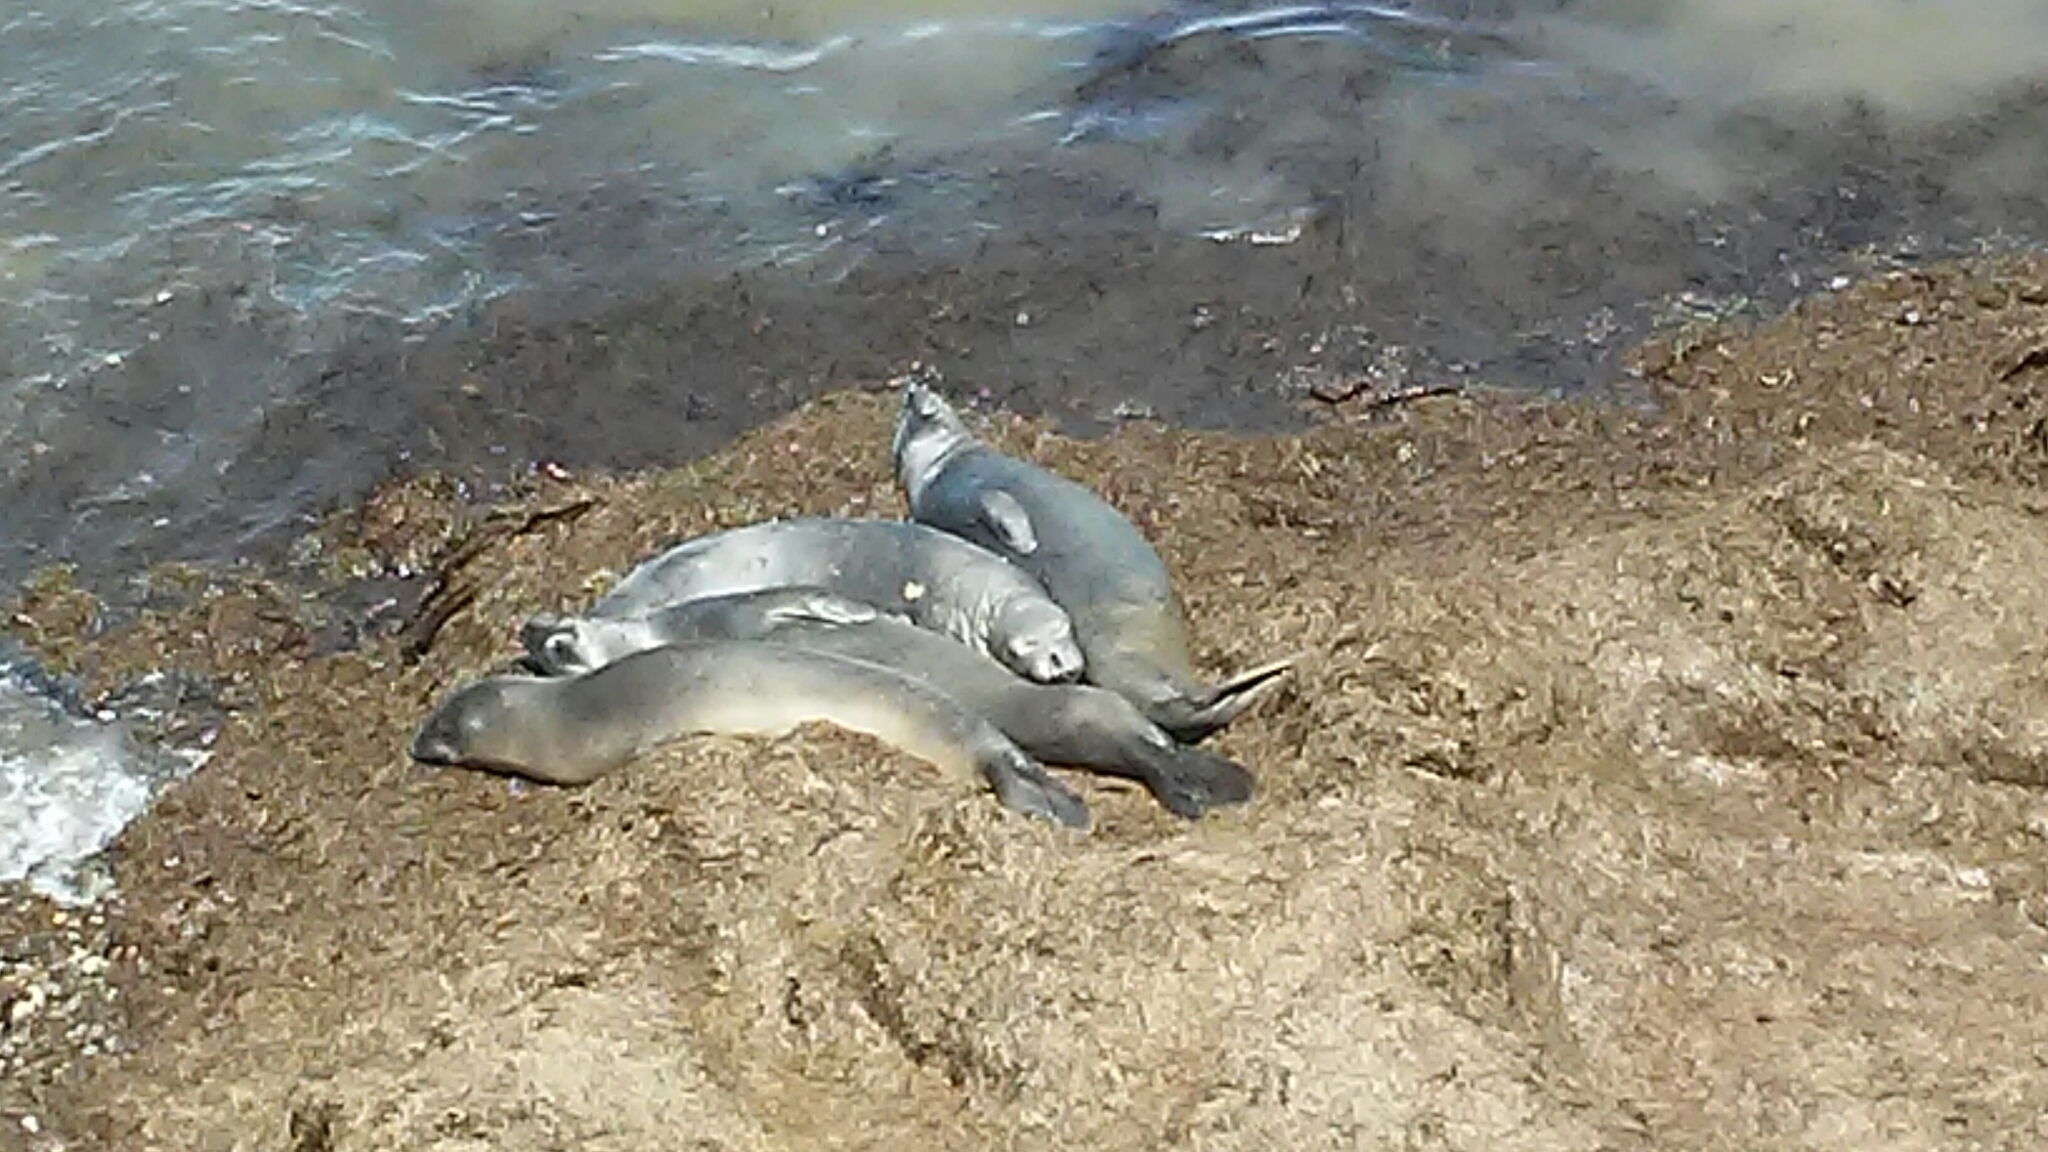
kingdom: Animalia
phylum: Chordata
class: Mammalia
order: Carnivora
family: Phocidae
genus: Mirounga
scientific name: Mirounga angustirostris
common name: Northern elephant seal
